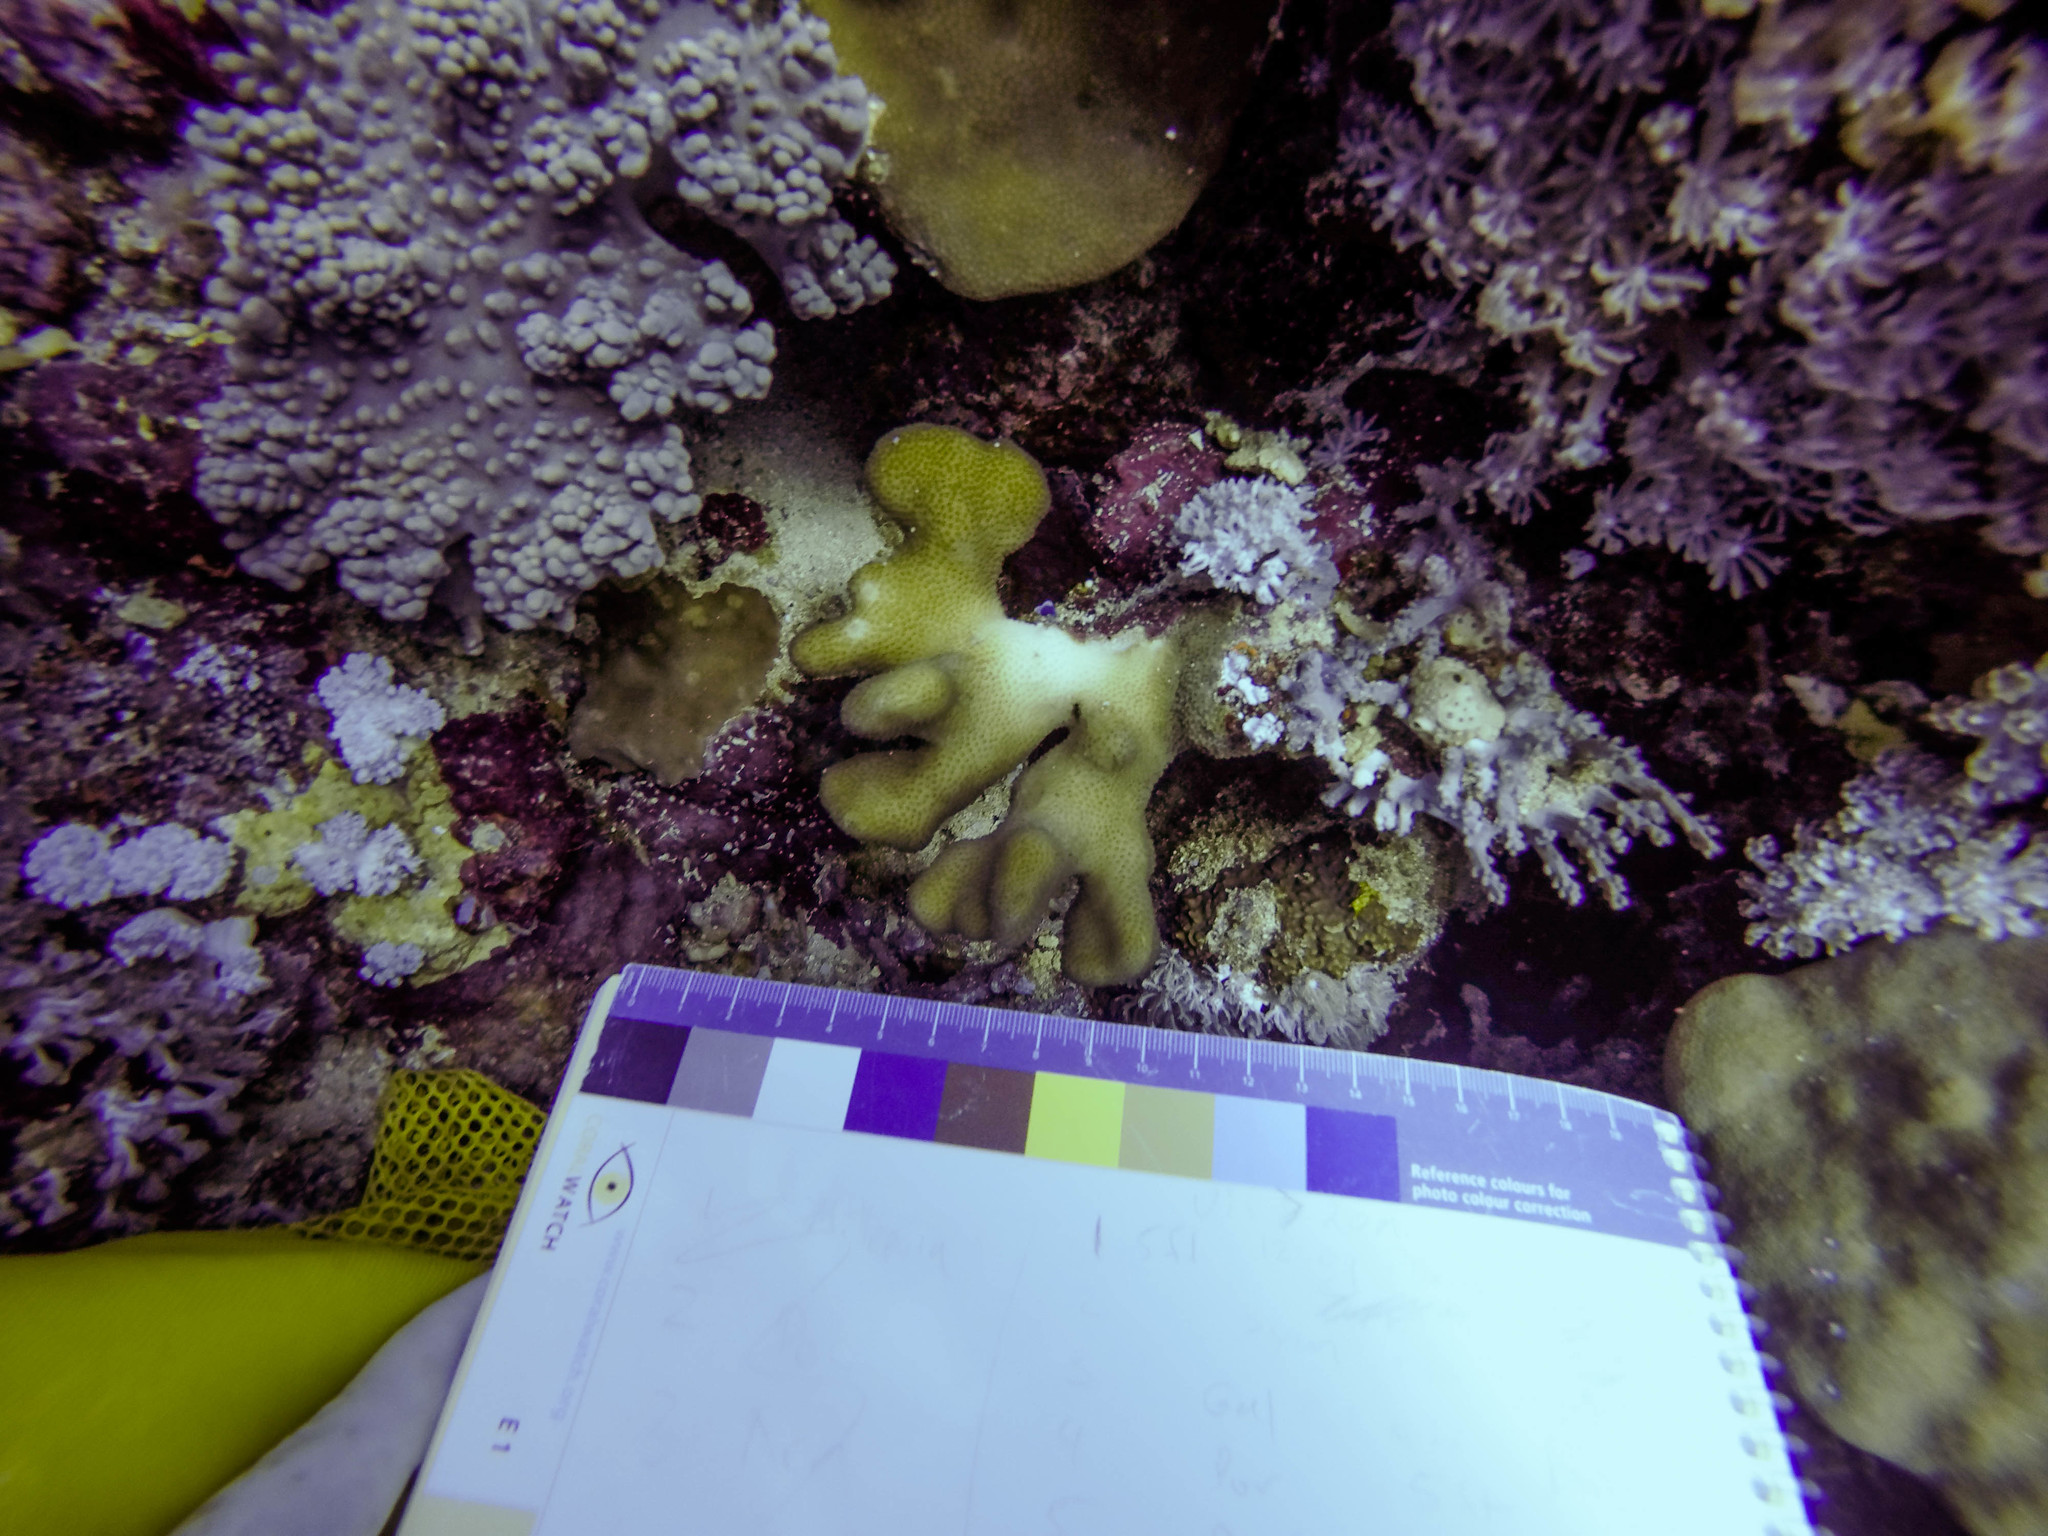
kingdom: Animalia
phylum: Cnidaria
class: Anthozoa
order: Scleractinia
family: Pocilloporidae
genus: Stylophora
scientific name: Stylophora pistillata
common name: Hood coral
